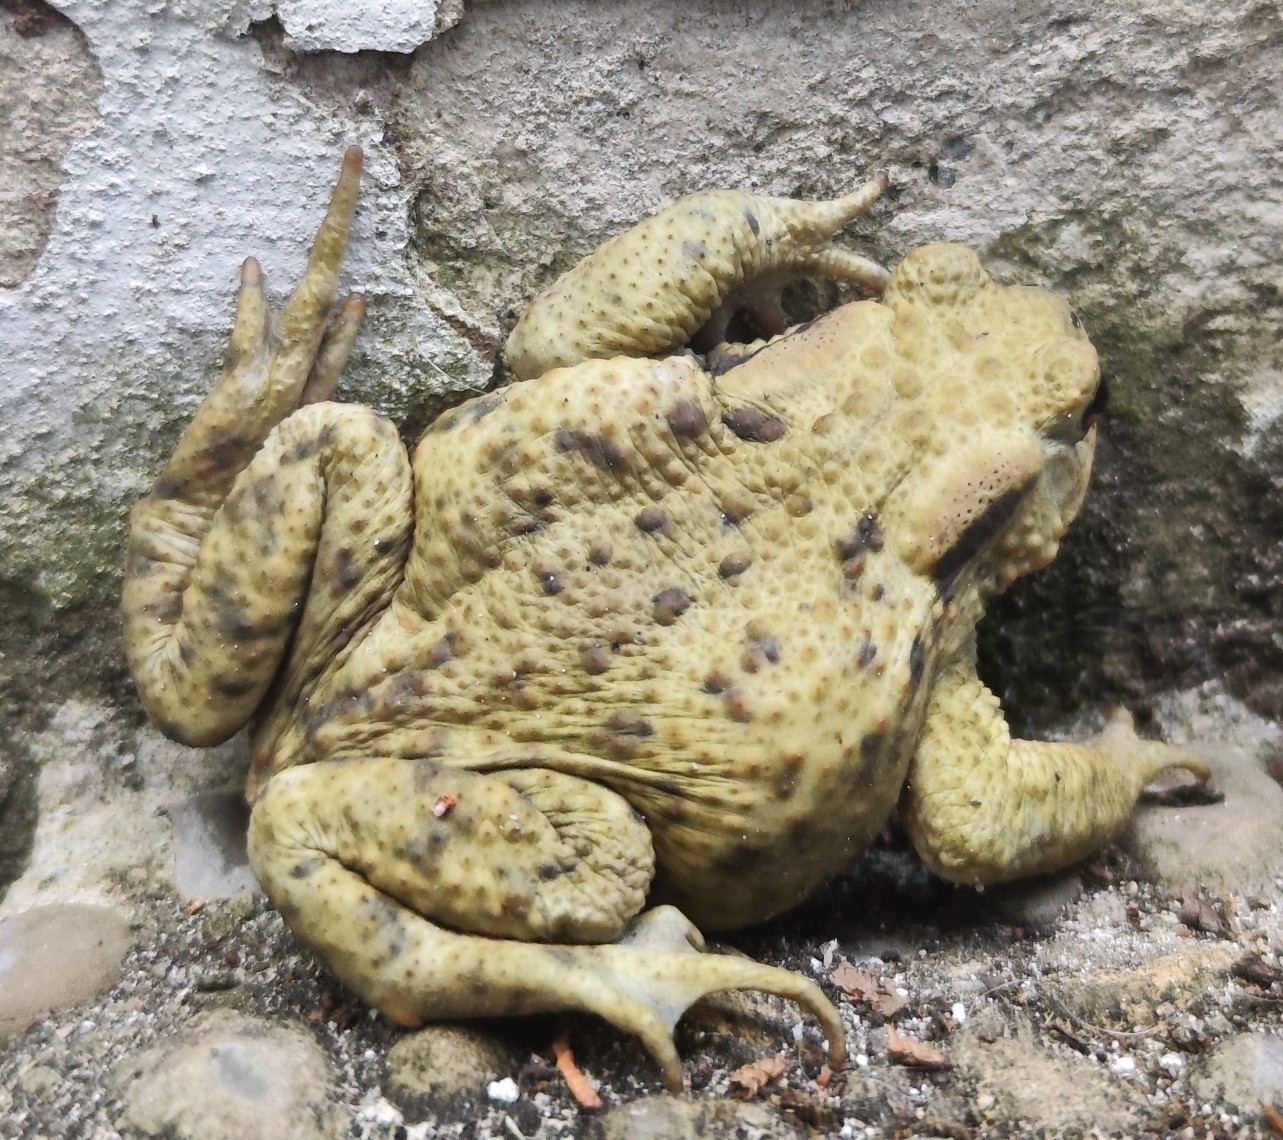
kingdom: Animalia
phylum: Chordata
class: Amphibia
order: Anura
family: Bufonidae
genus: Bufo
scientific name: Bufo bufo
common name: Common toad
